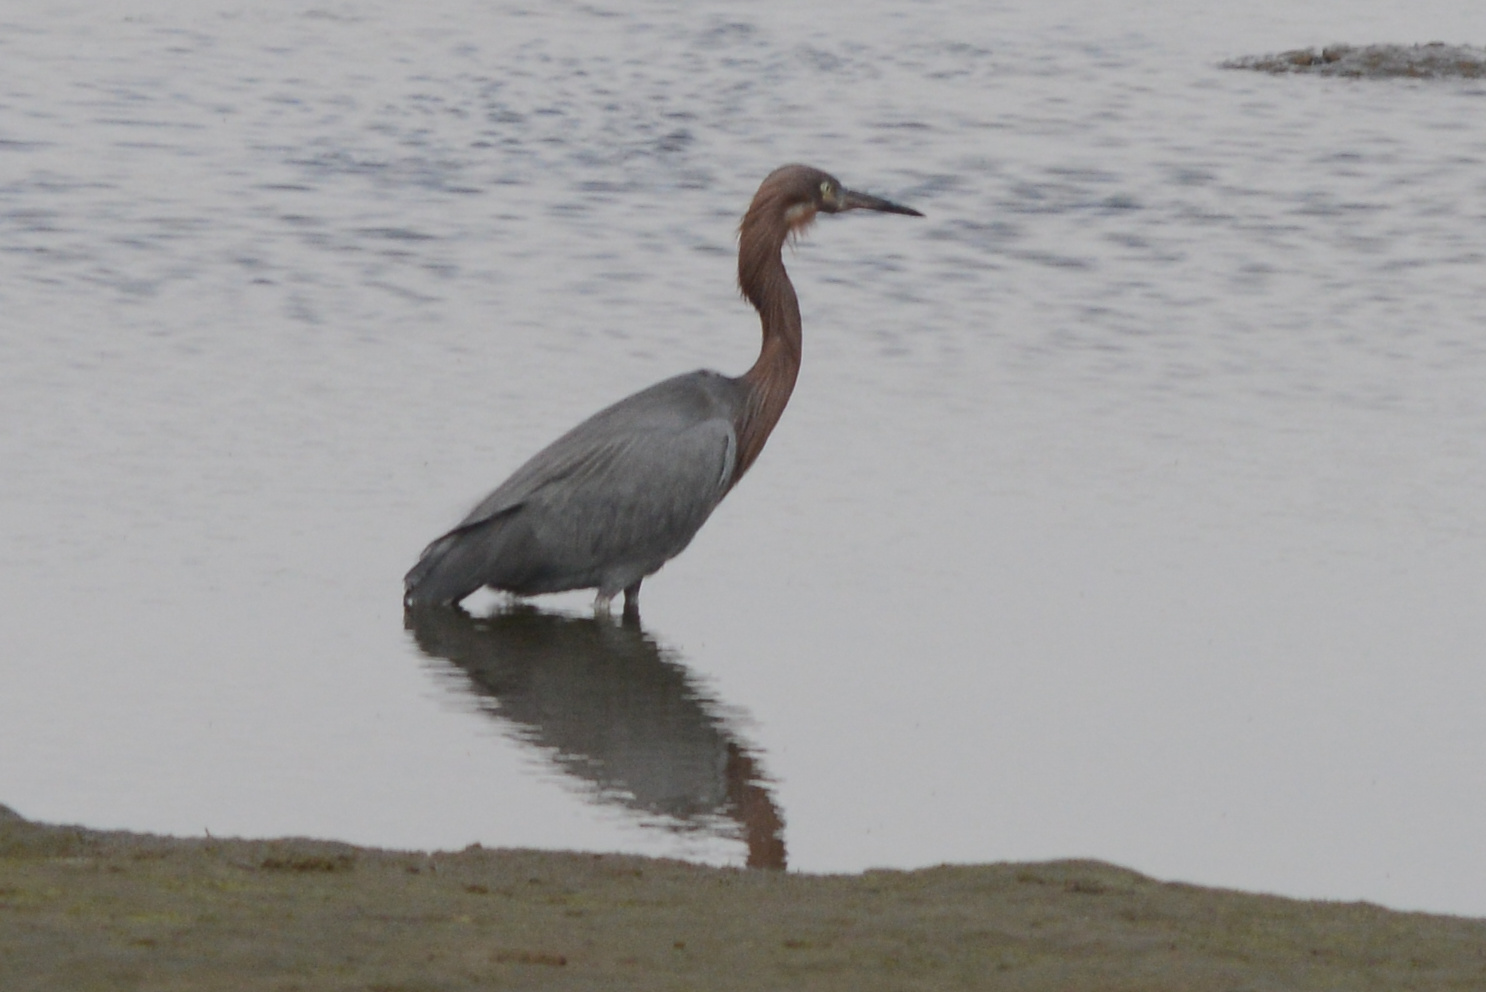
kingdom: Animalia
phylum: Chordata
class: Aves
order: Pelecaniformes
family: Ardeidae
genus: Egretta
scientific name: Egretta rufescens
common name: Reddish egret
